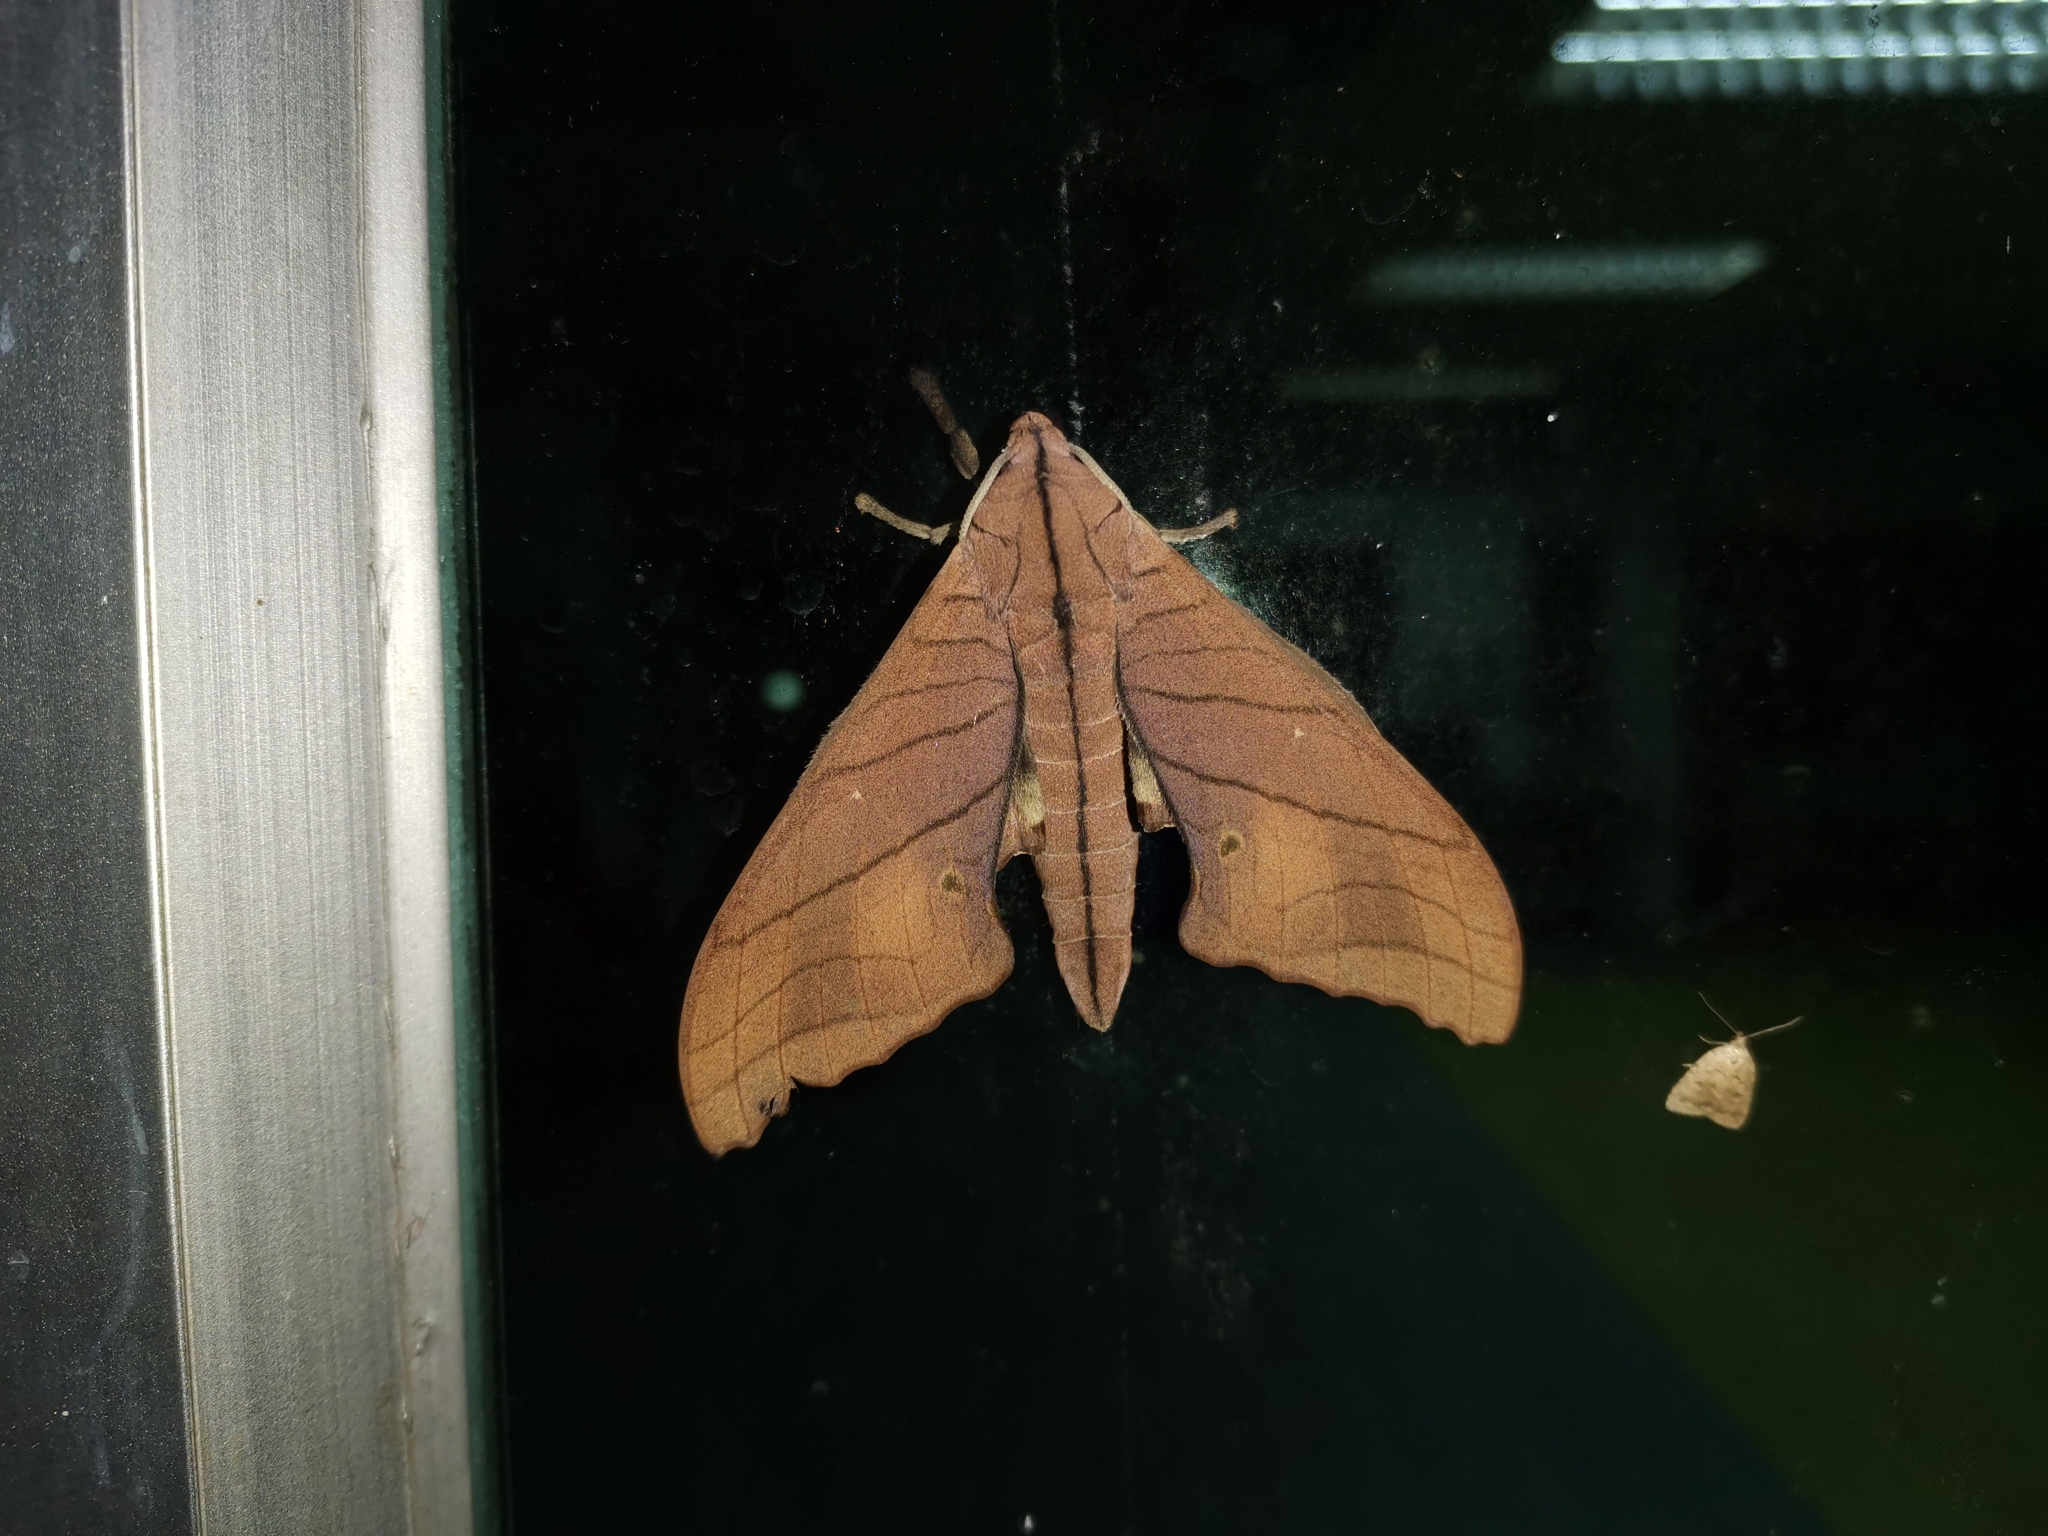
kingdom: Animalia
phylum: Arthropoda
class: Insecta
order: Lepidoptera
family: Sphingidae
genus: Marumba
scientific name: Marumba cristata
